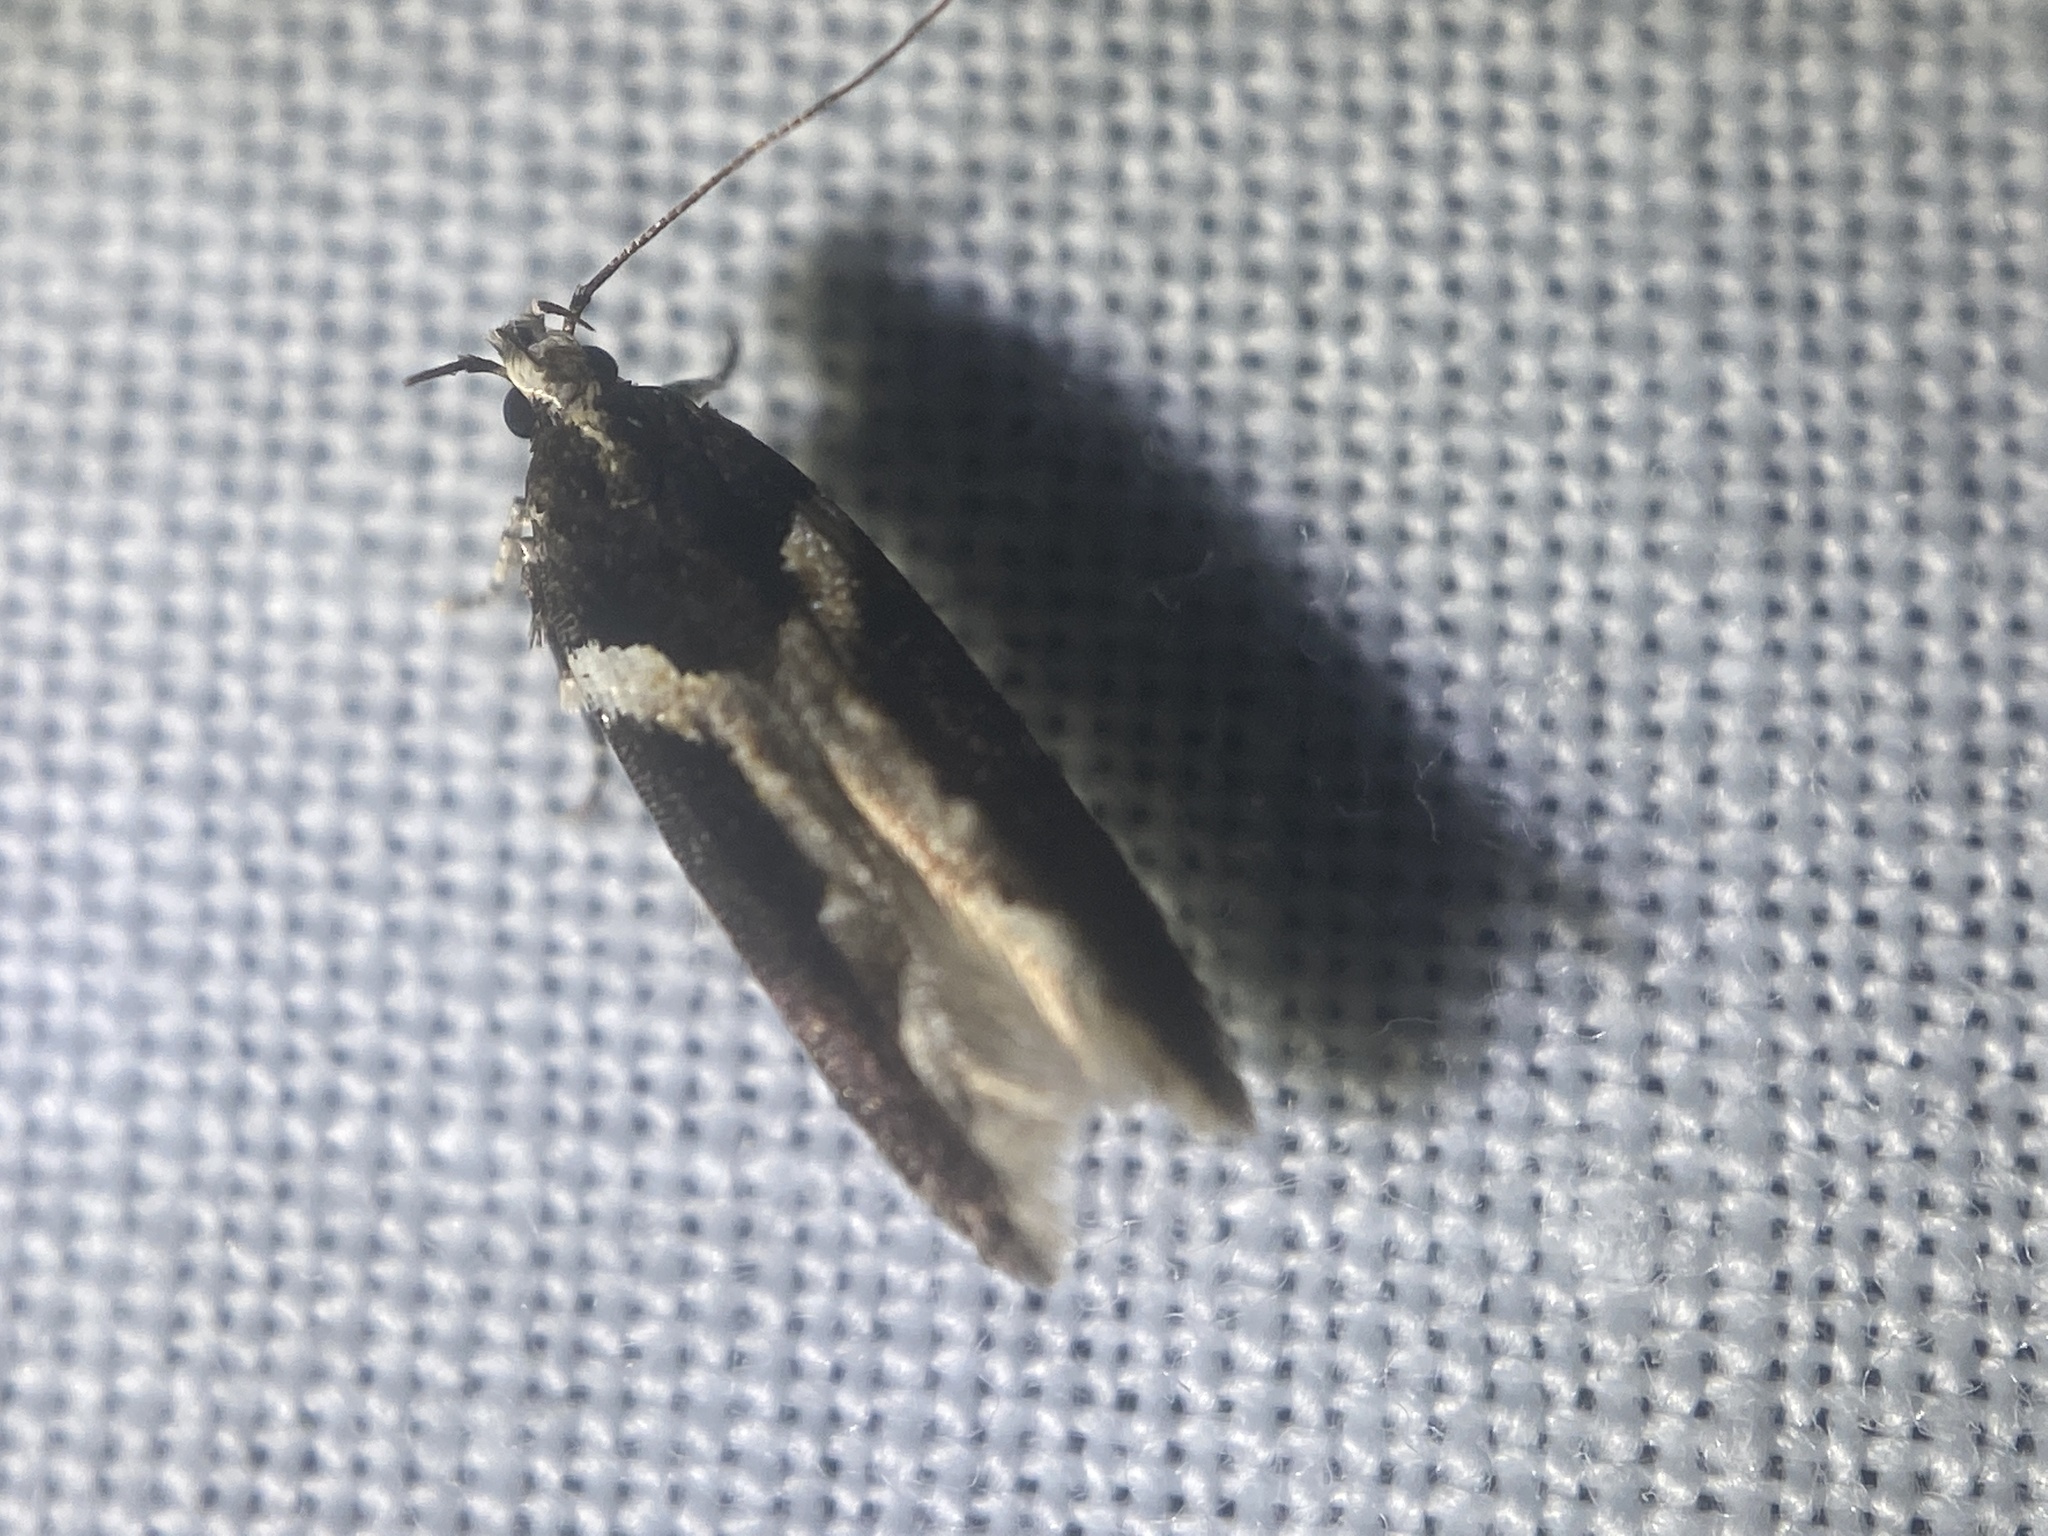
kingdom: Animalia
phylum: Arthropoda
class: Insecta
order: Lepidoptera
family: Gelechiidae
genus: Telphusa
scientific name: Telphusa longifasciella
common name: Y-backed telphusa
